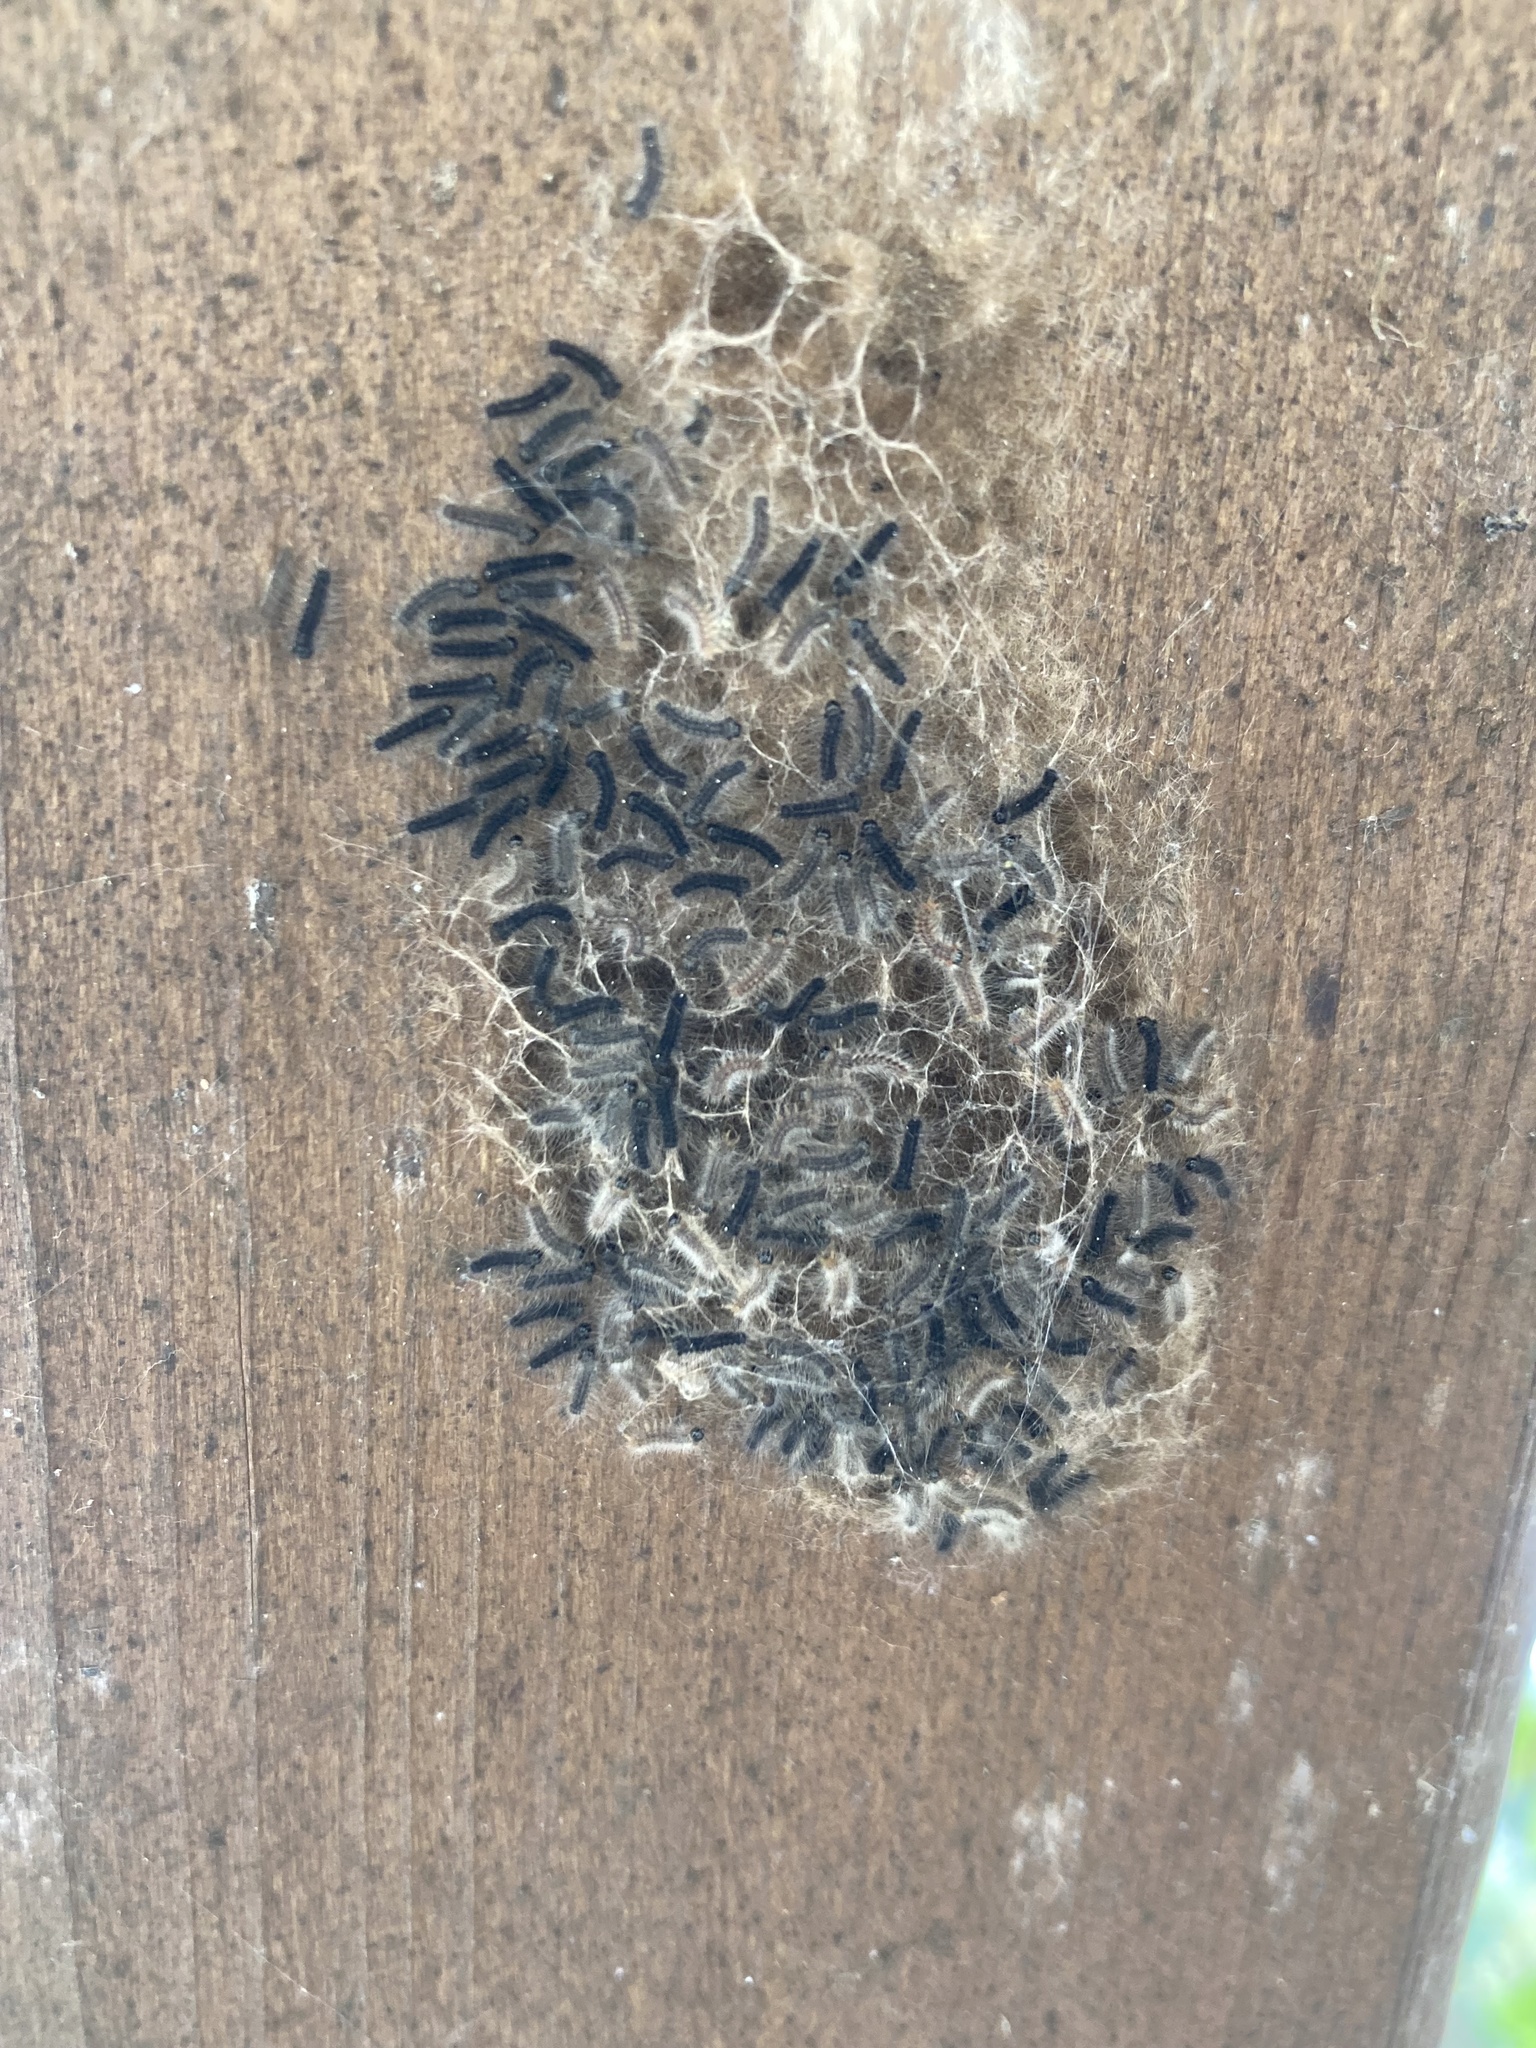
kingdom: Animalia
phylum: Arthropoda
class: Insecta
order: Lepidoptera
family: Erebidae
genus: Lymantria
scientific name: Lymantria dispar
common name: Gypsy moth
